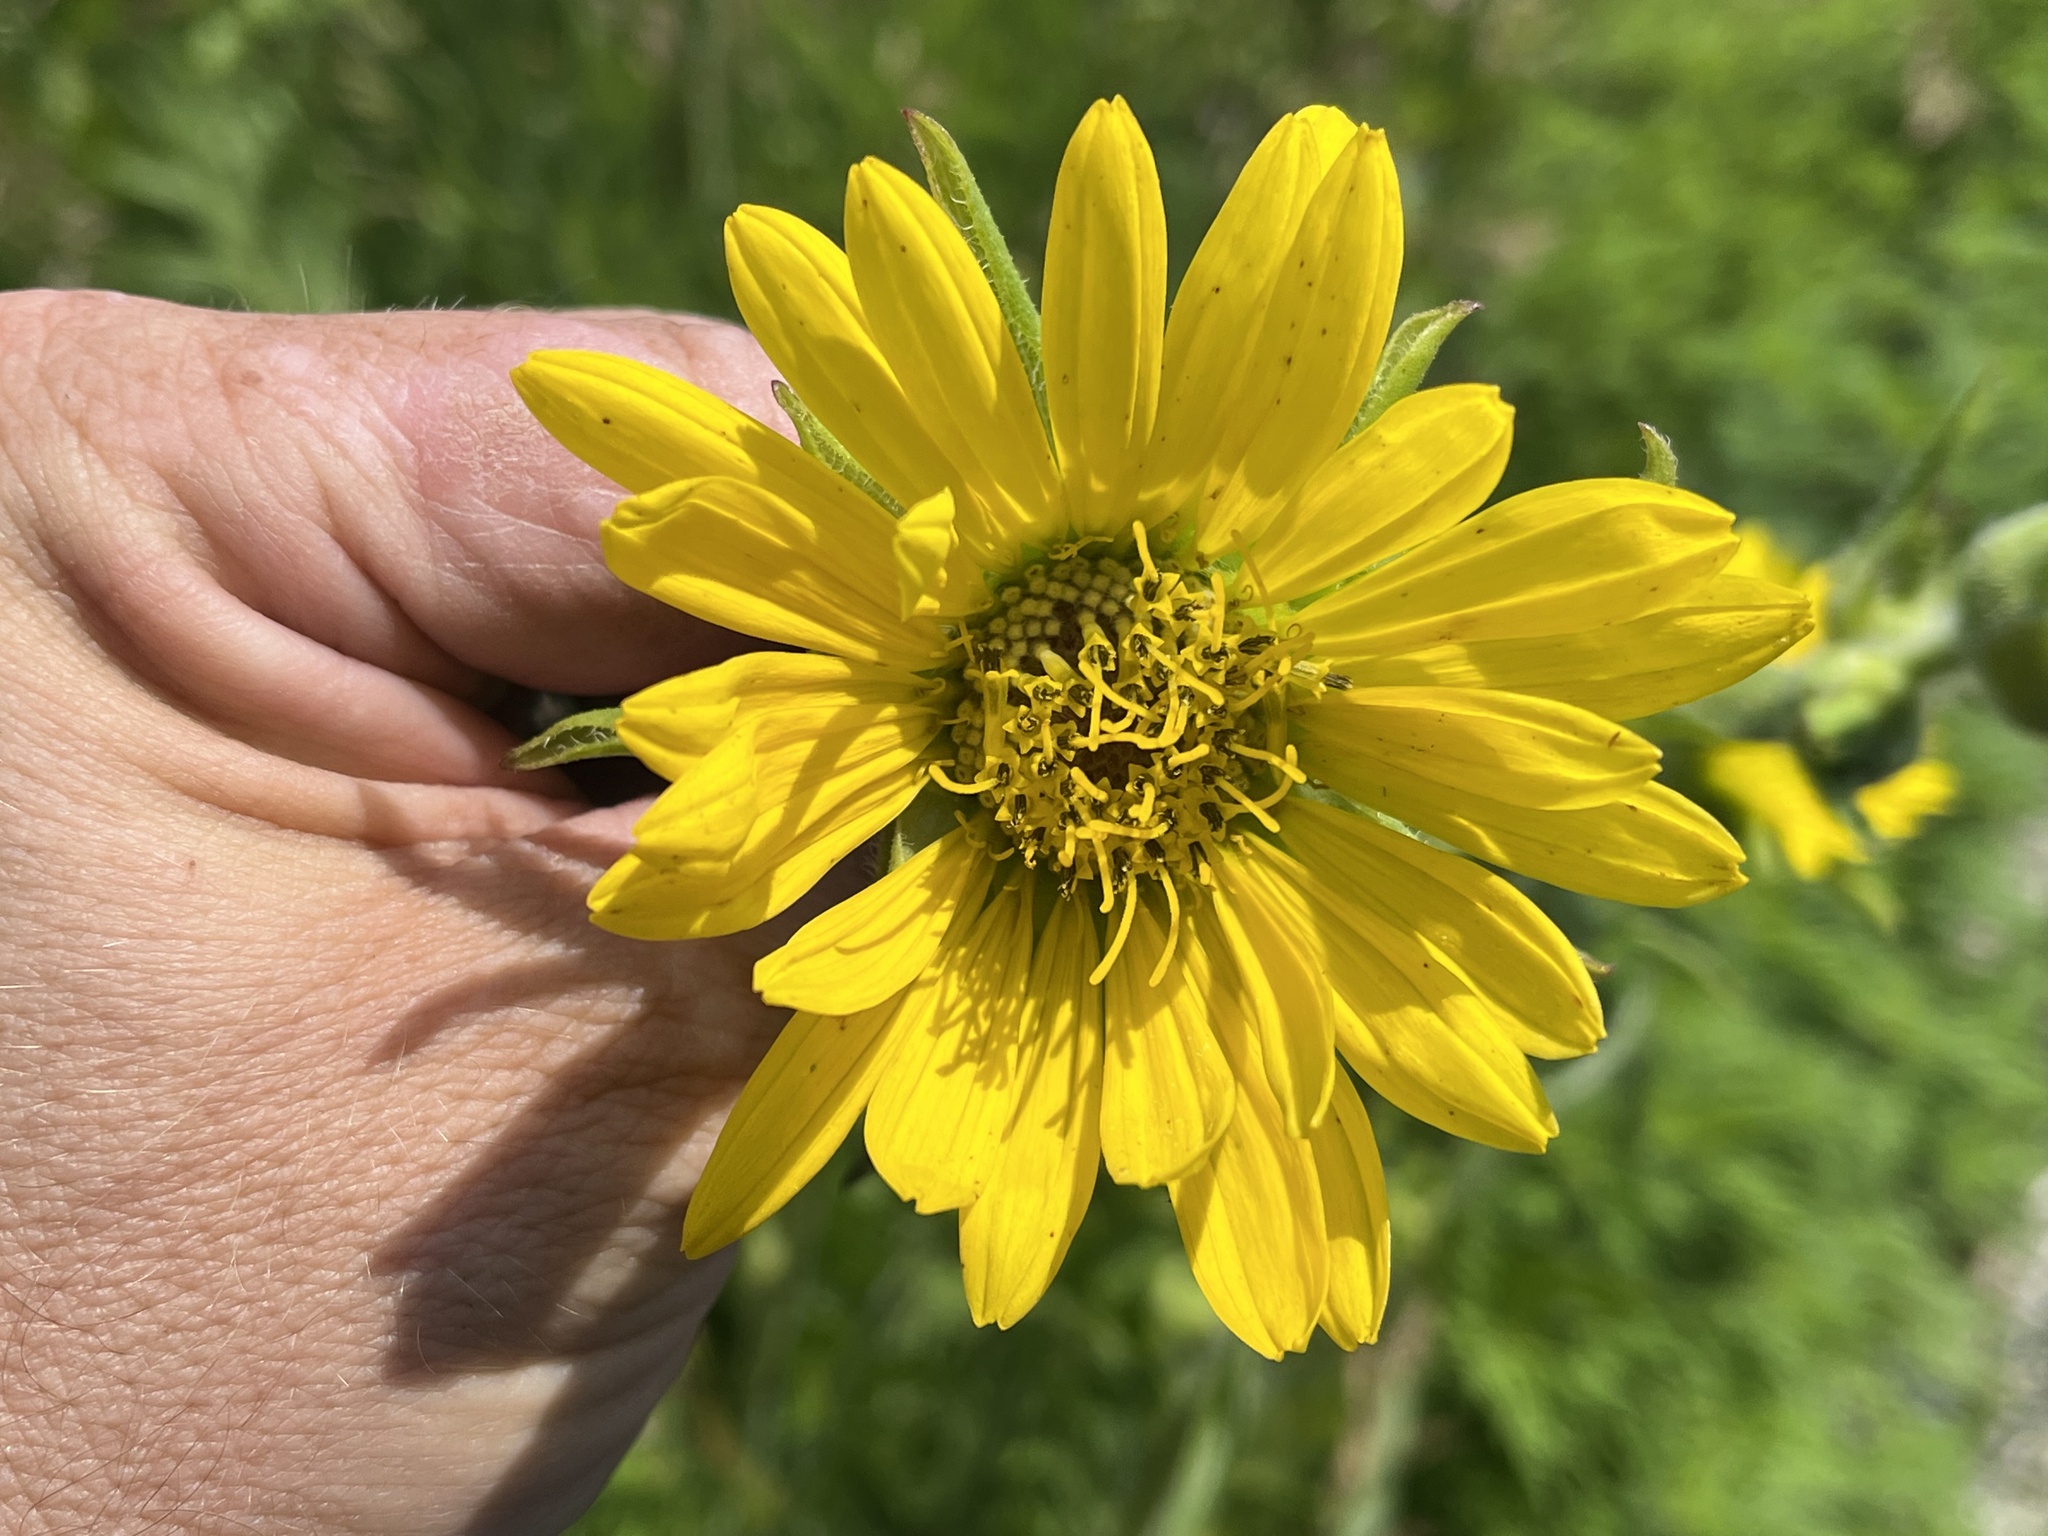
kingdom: Plantae
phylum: Tracheophyta
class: Magnoliopsida
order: Asterales
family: Asteraceae
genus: Silphium
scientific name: Silphium laciniatum
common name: Polarplant
